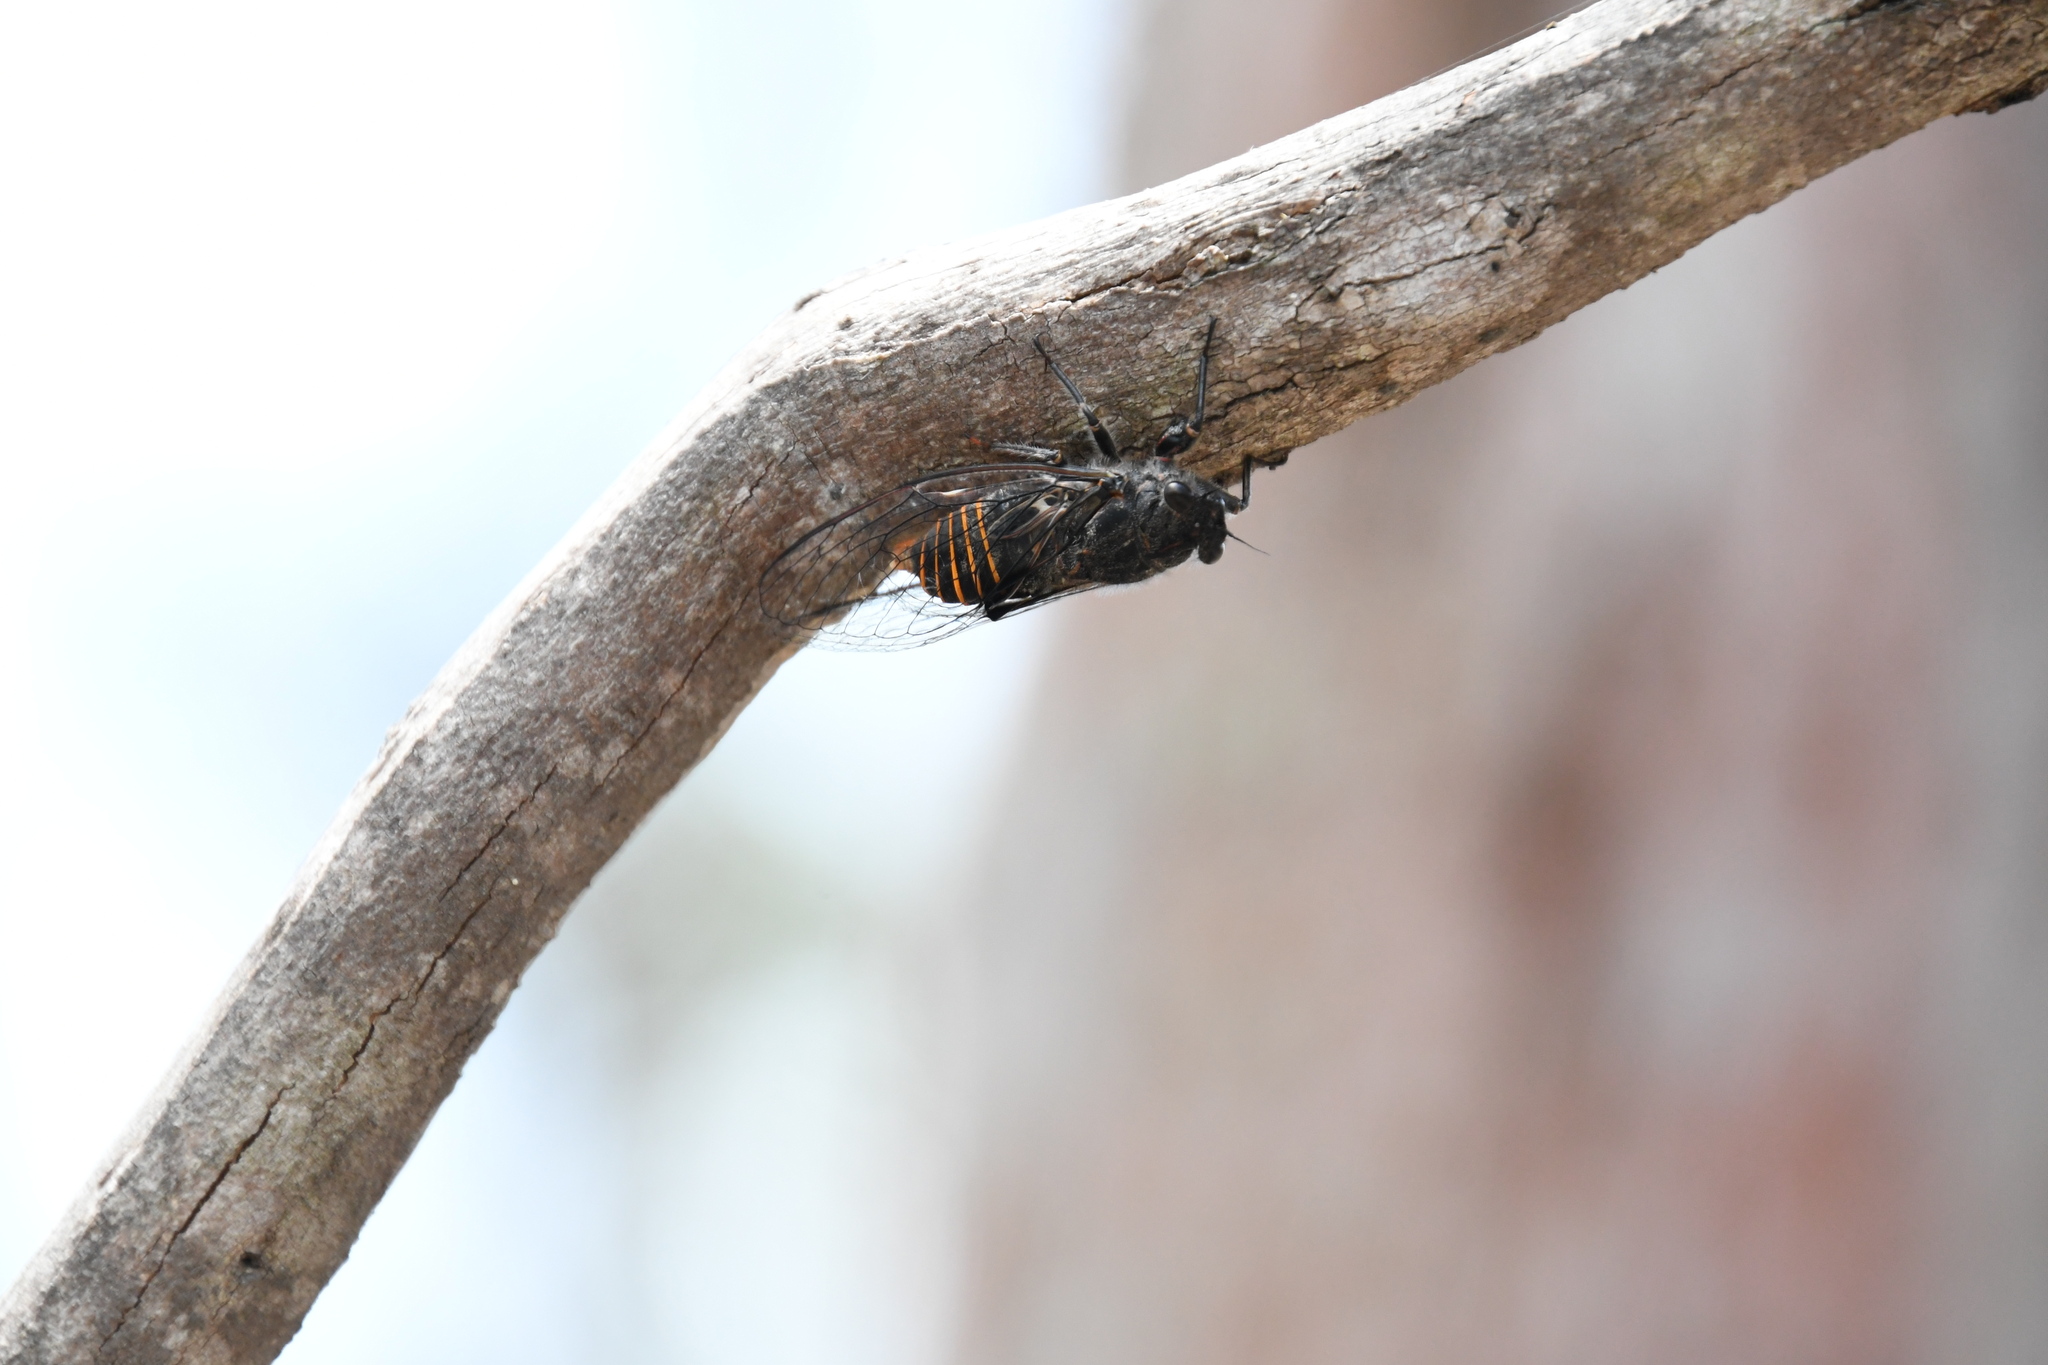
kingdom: Animalia
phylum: Arthropoda
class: Insecta
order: Hemiptera
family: Cicadidae
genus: Pauropsalta
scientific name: Pauropsalta mneme
